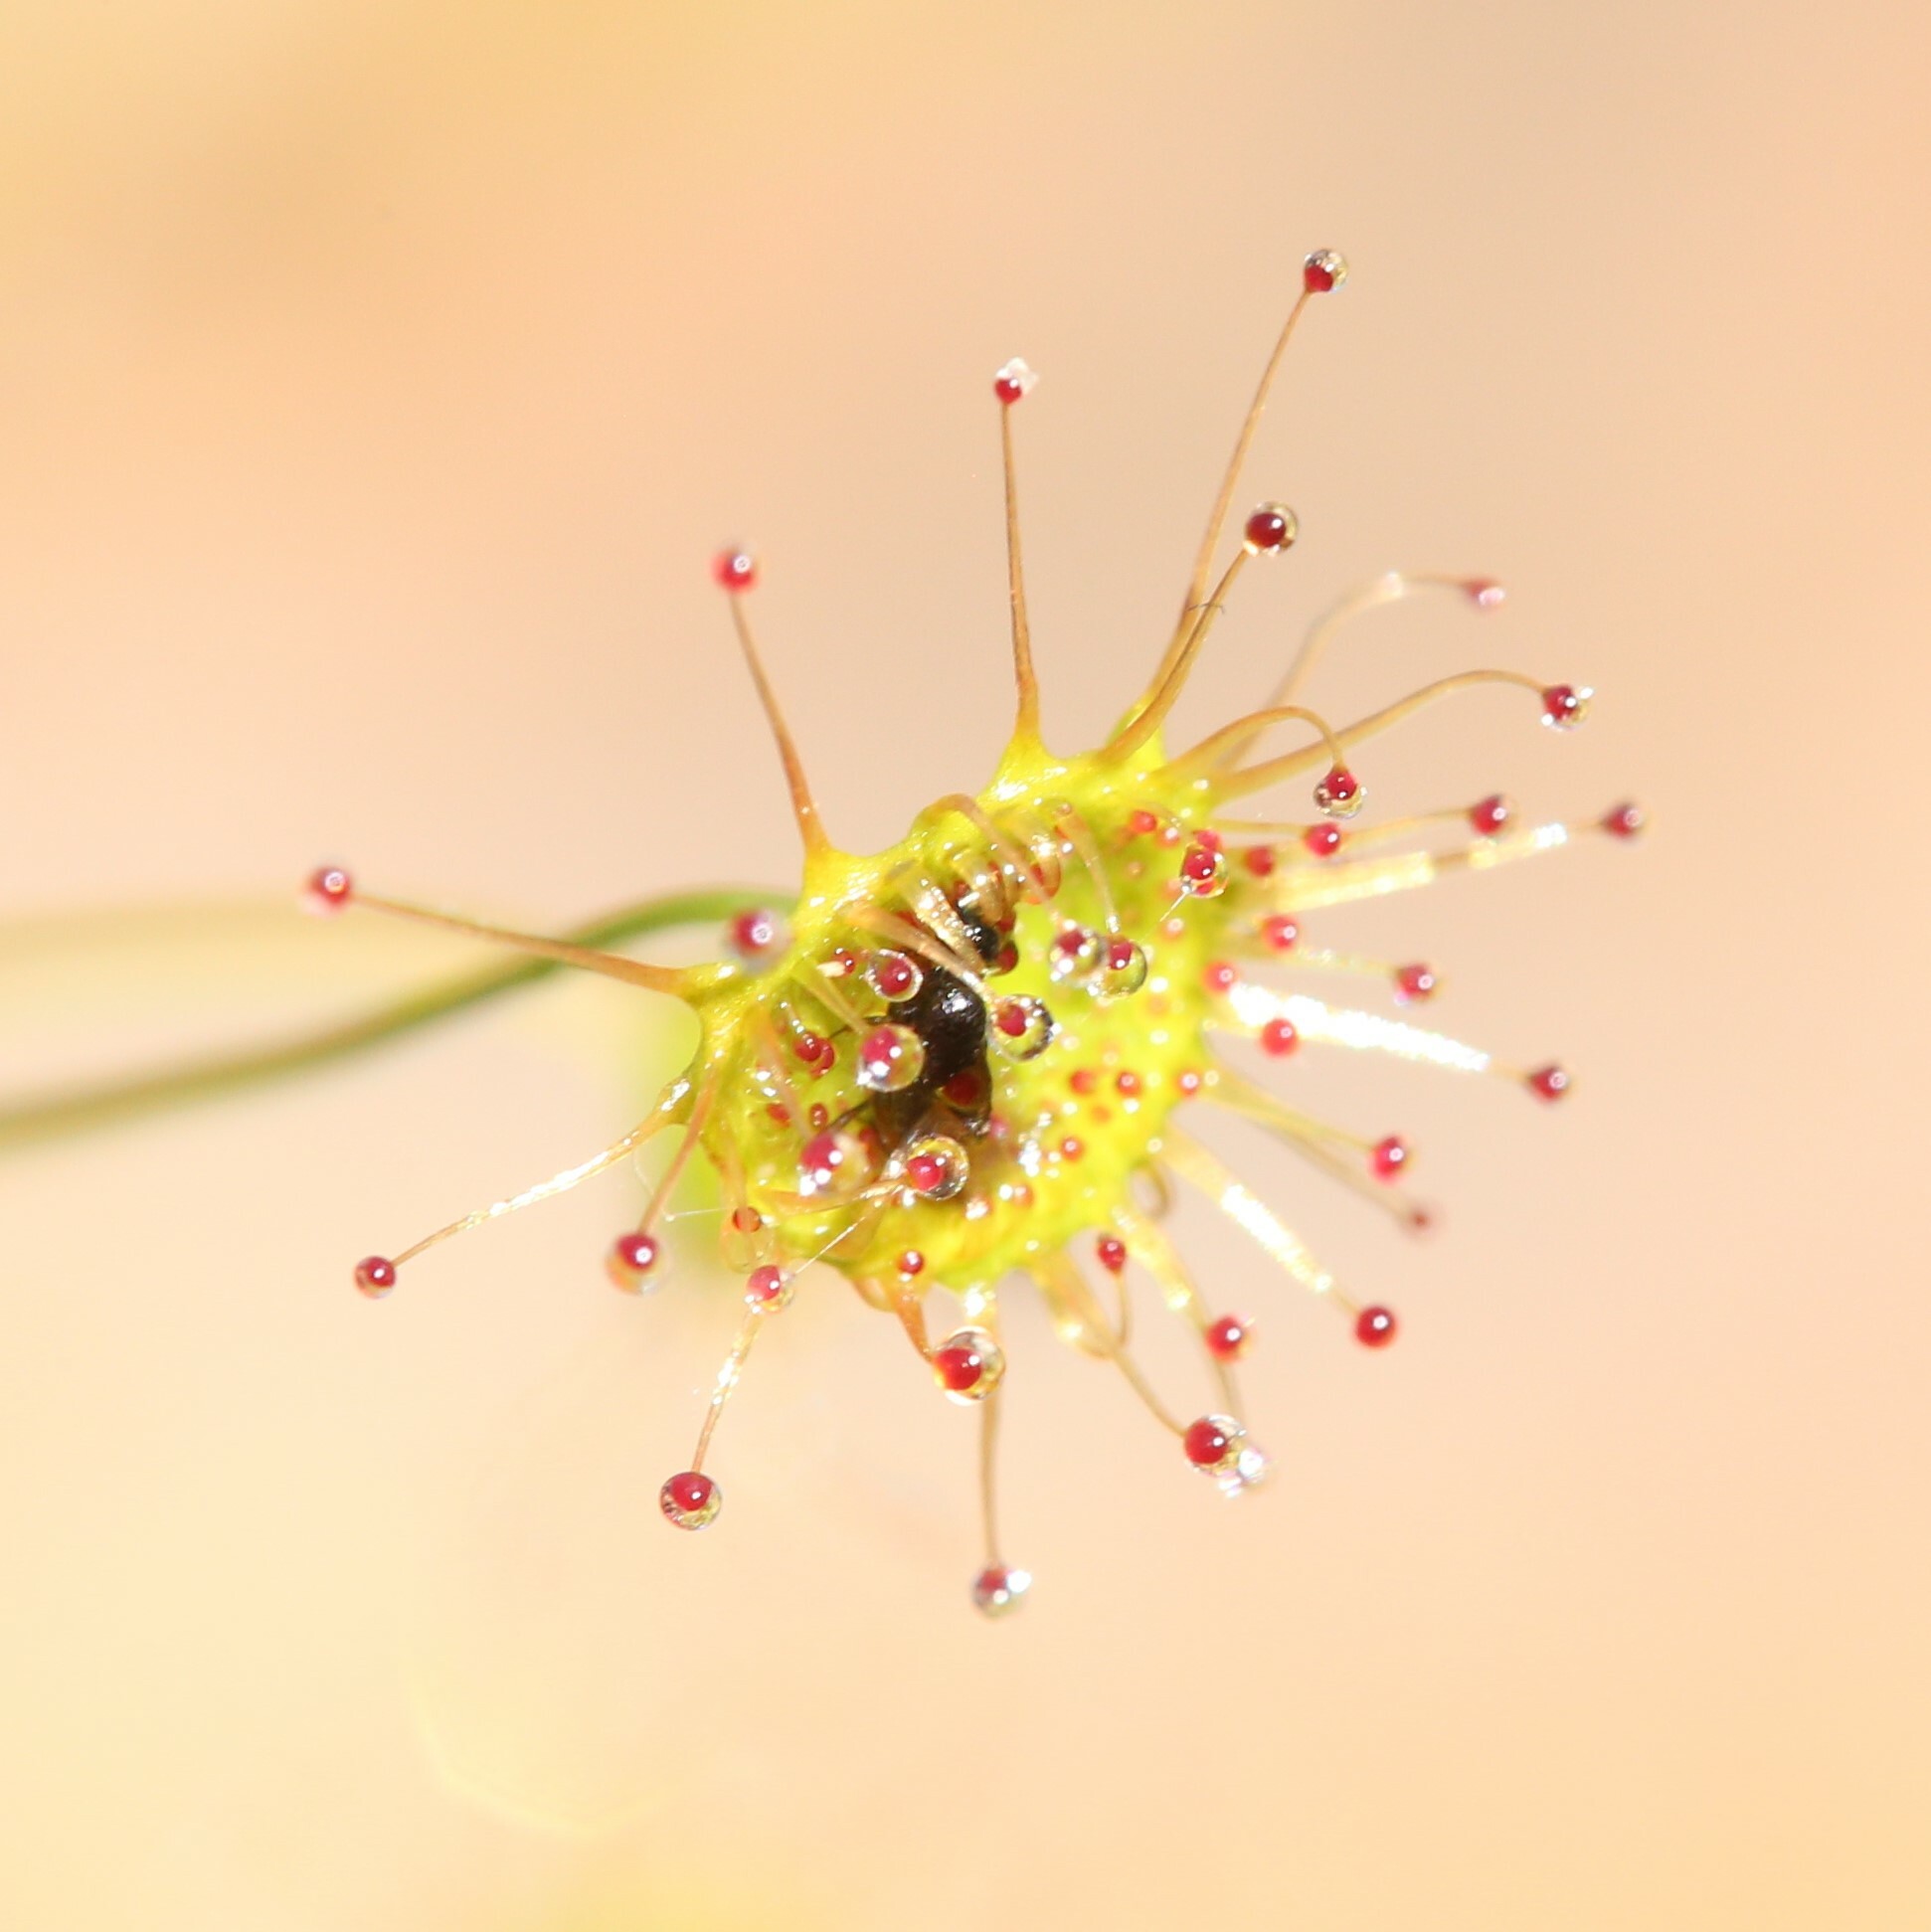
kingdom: Plantae
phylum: Tracheophyta
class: Magnoliopsida
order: Caryophyllales
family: Droseraceae
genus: Drosera
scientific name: Drosera
